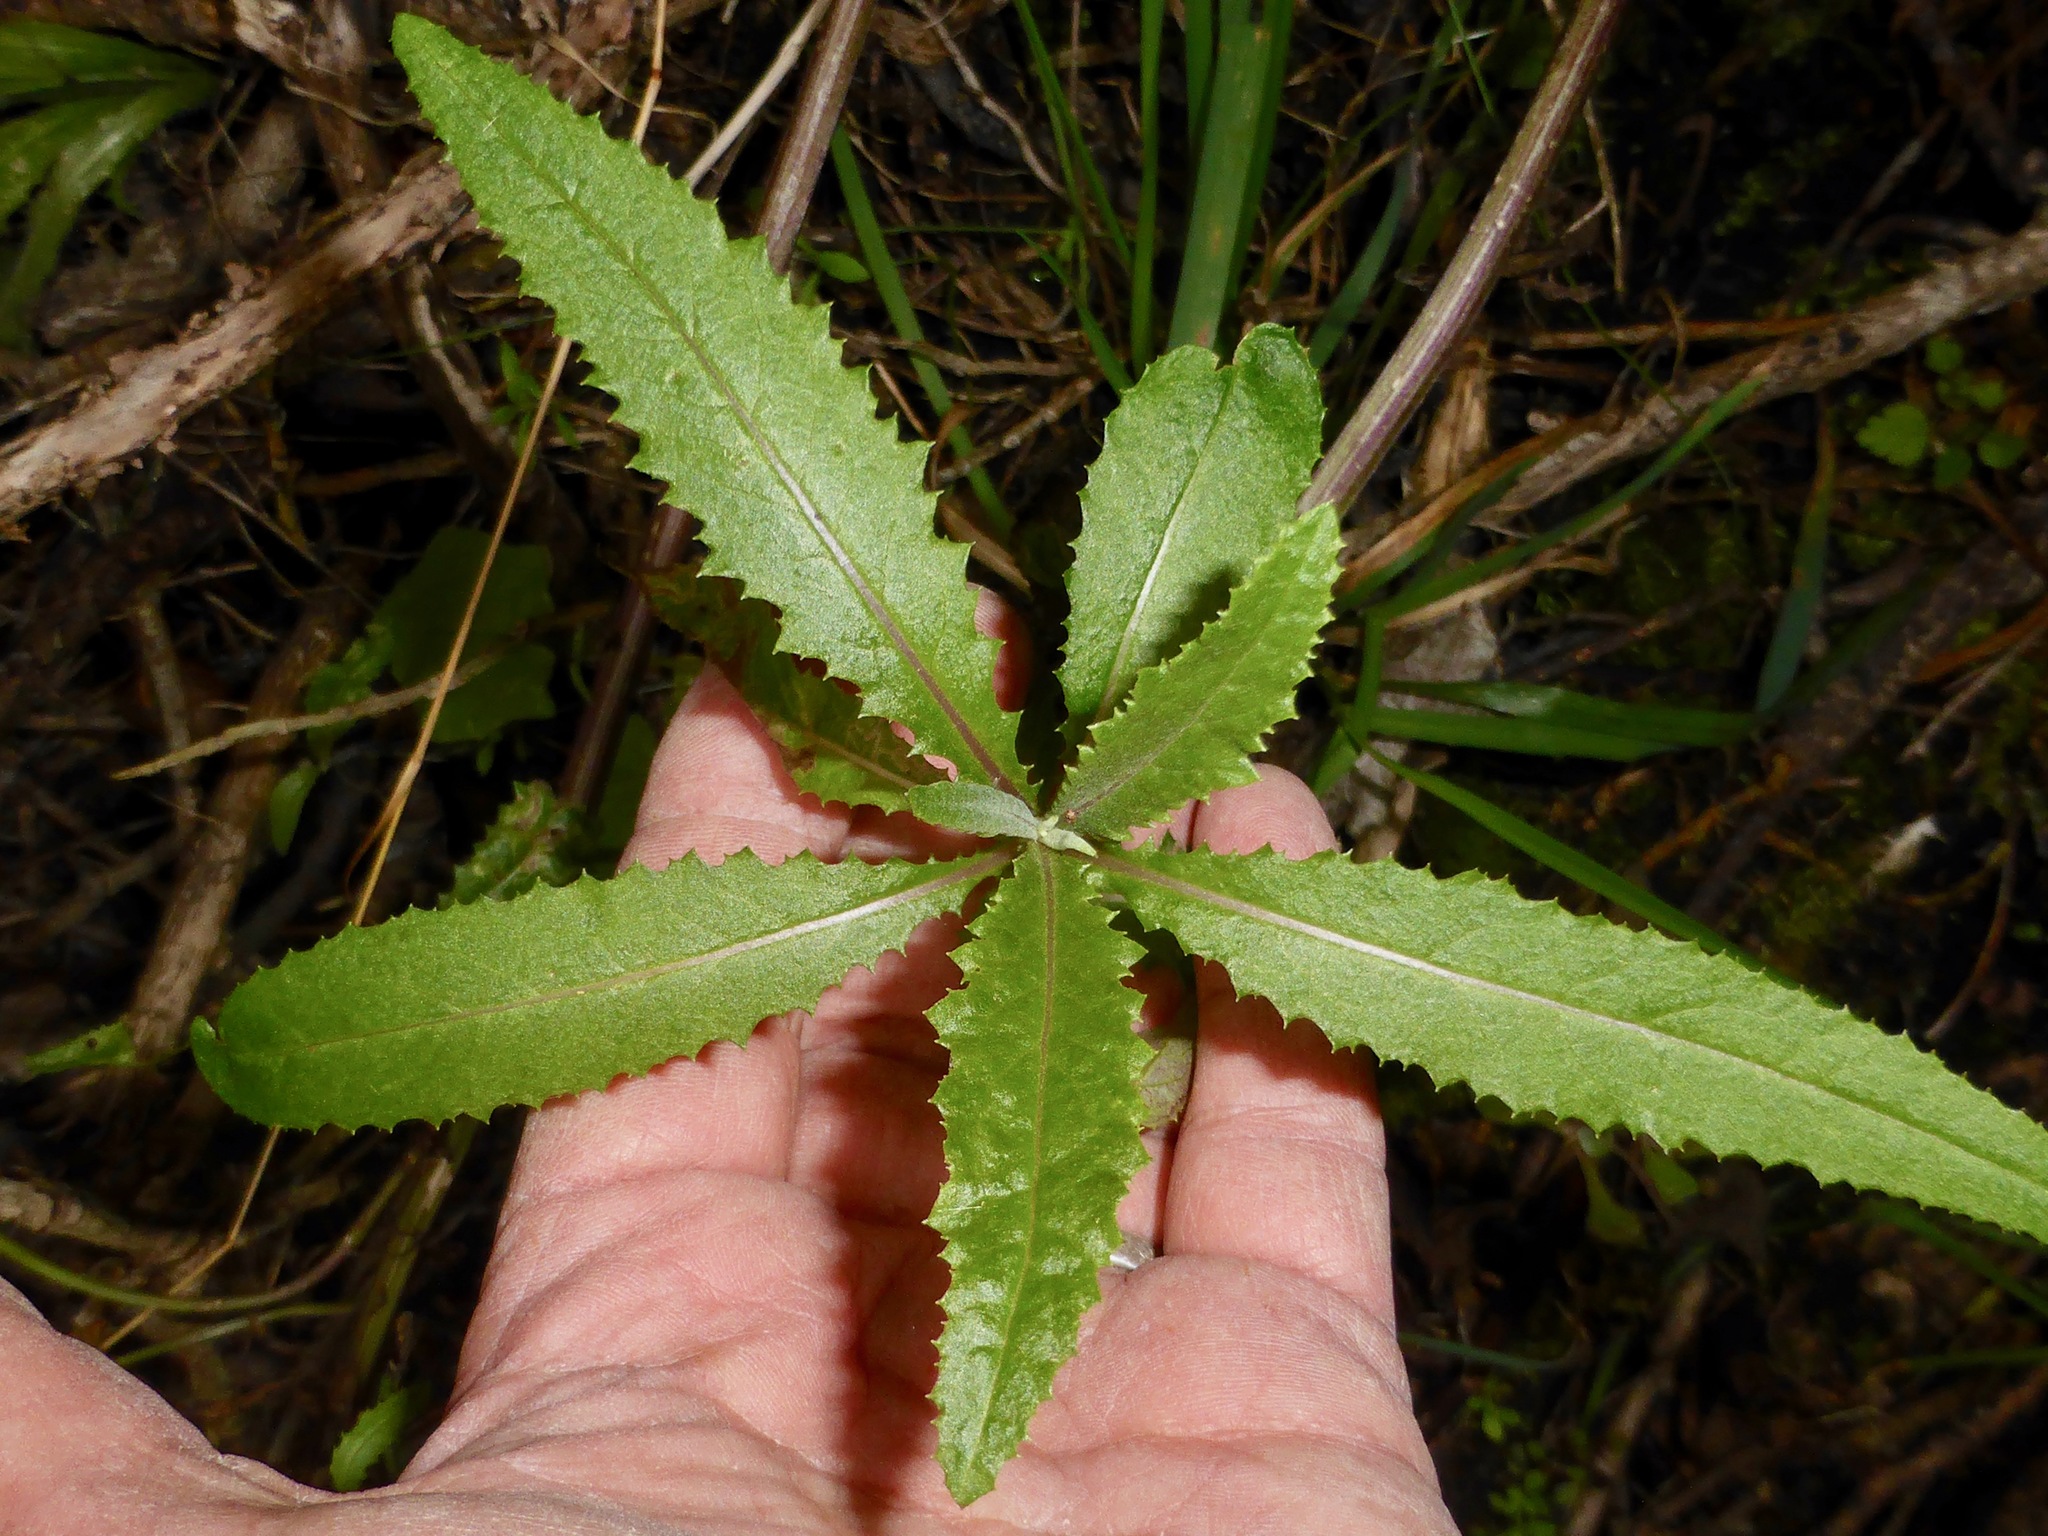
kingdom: Plantae
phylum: Tracheophyta
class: Magnoliopsida
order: Asterales
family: Asteraceae
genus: Senecio
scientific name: Senecio minimus
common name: Toothed fireweed
